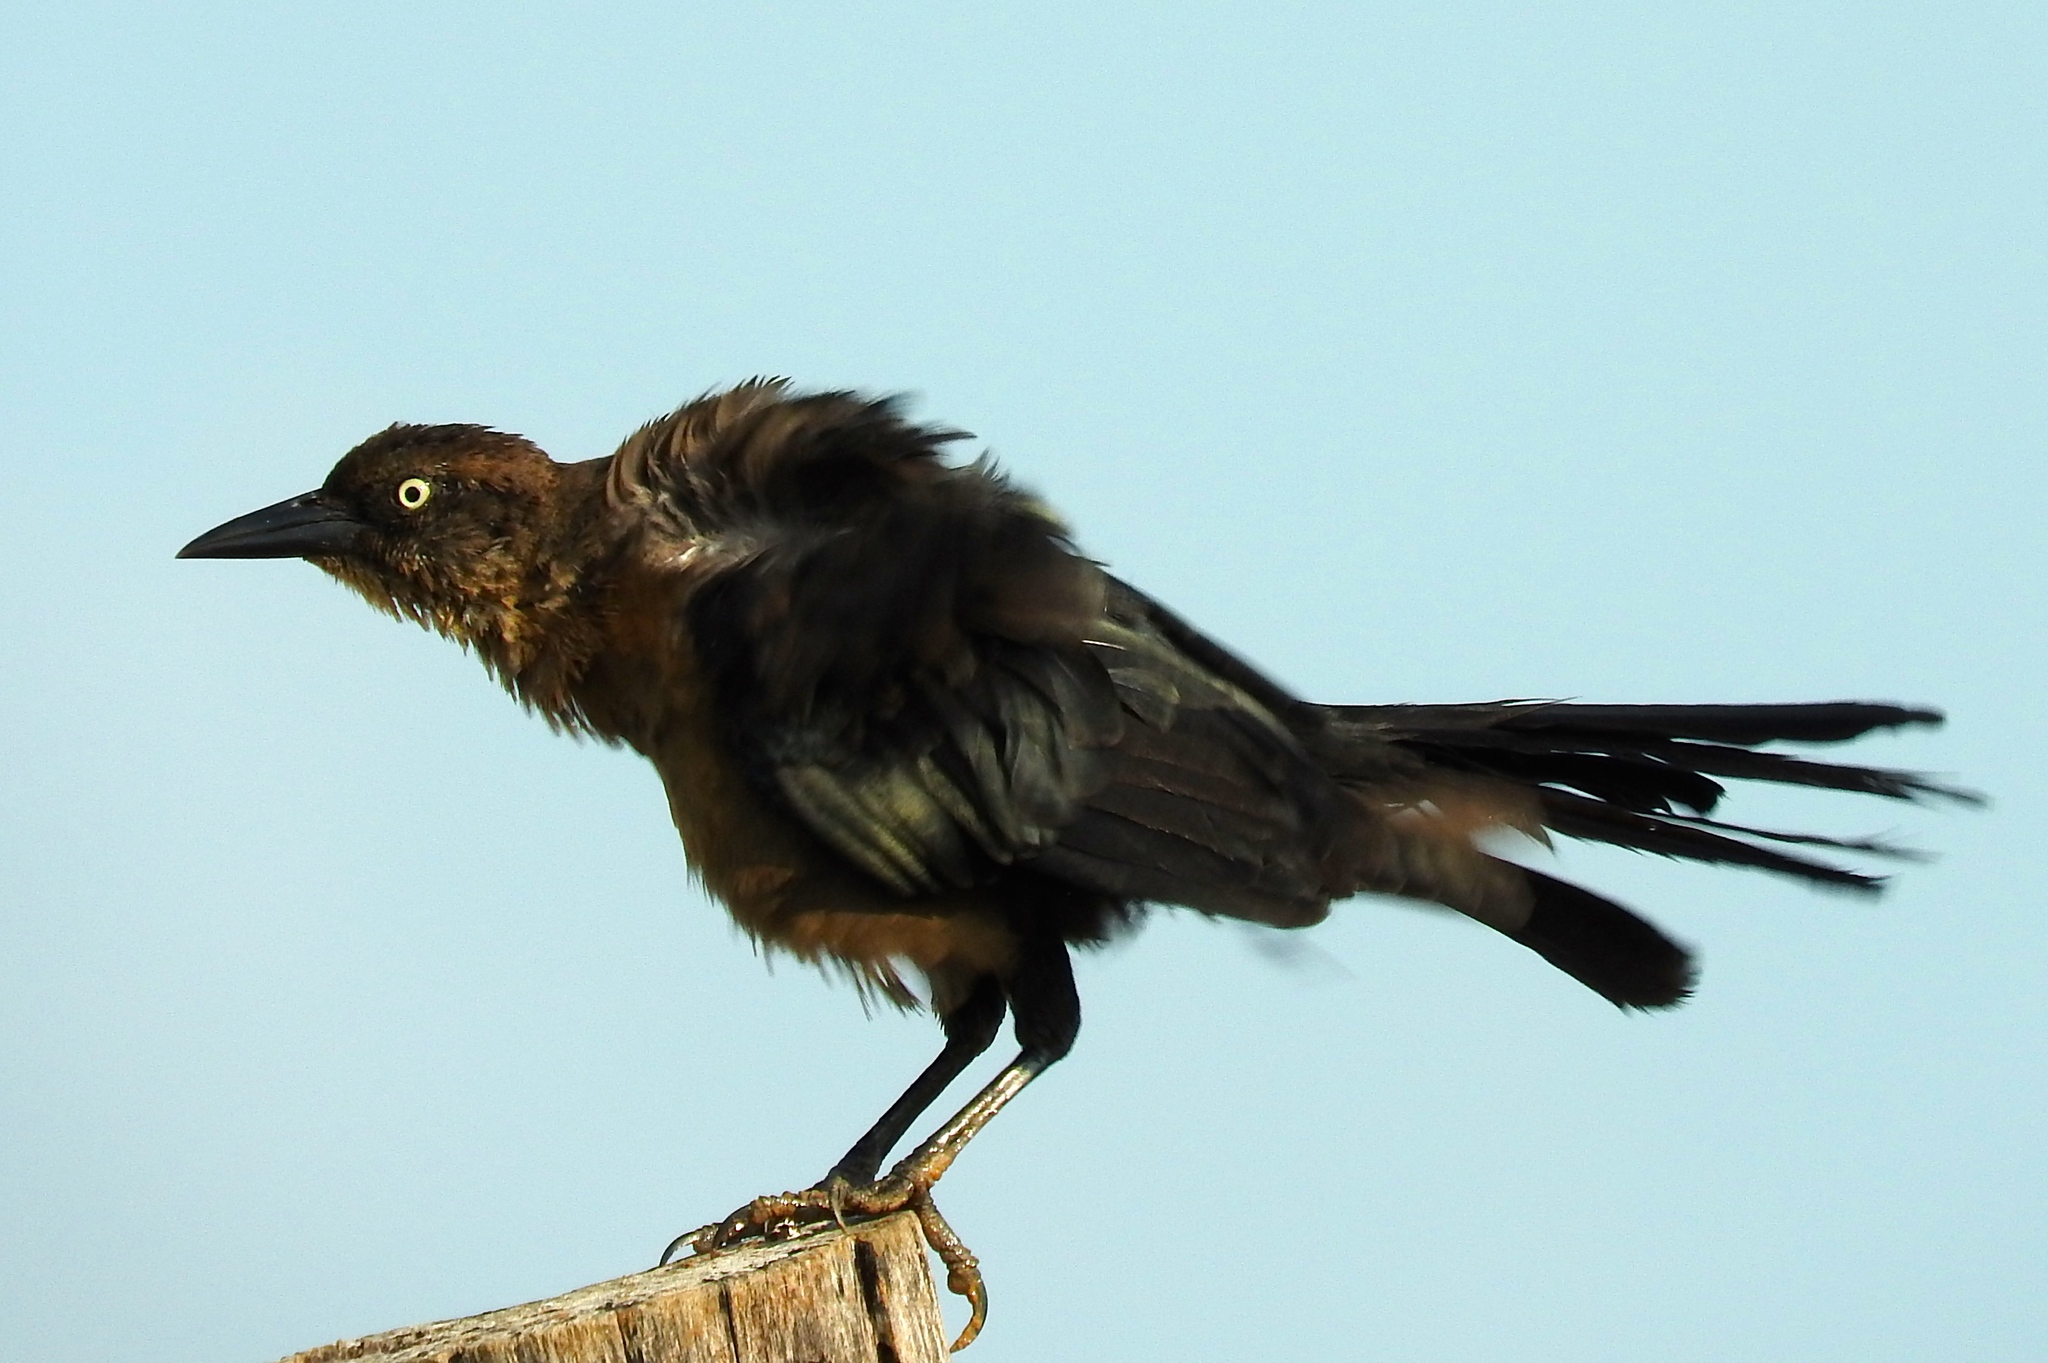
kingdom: Animalia
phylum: Chordata
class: Aves
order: Passeriformes
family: Icteridae
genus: Quiscalus
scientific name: Quiscalus mexicanus
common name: Great-tailed grackle
